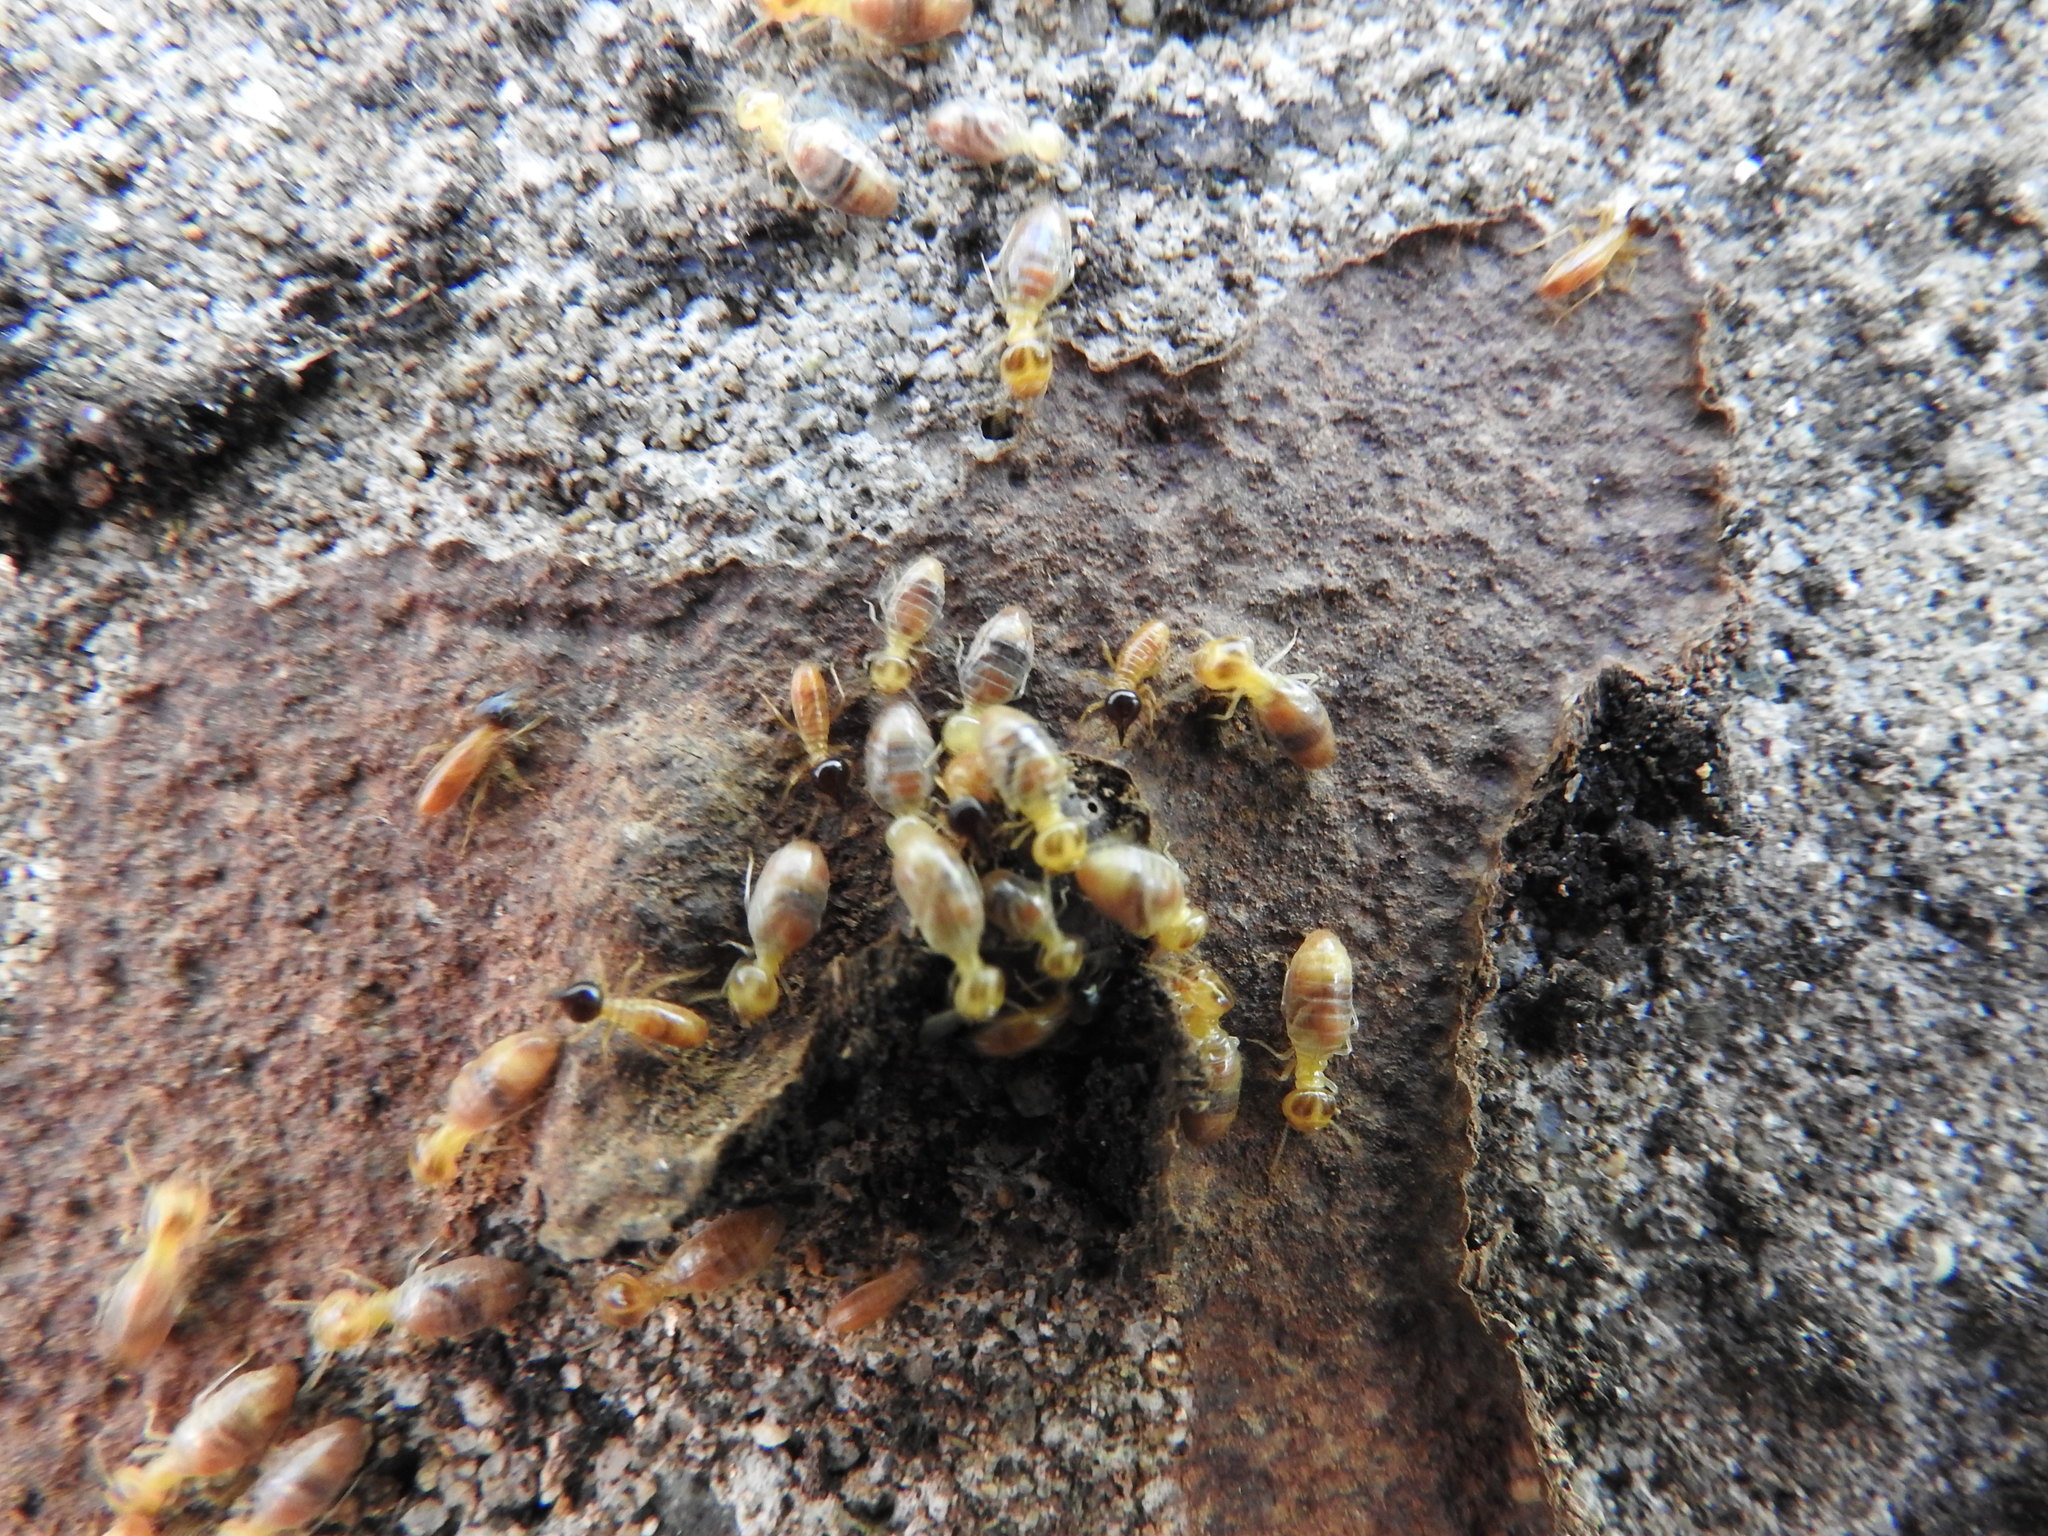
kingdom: Animalia
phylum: Arthropoda
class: Insecta
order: Blattodea
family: Termitidae
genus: Nasutitermes
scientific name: Nasutitermes corniger
